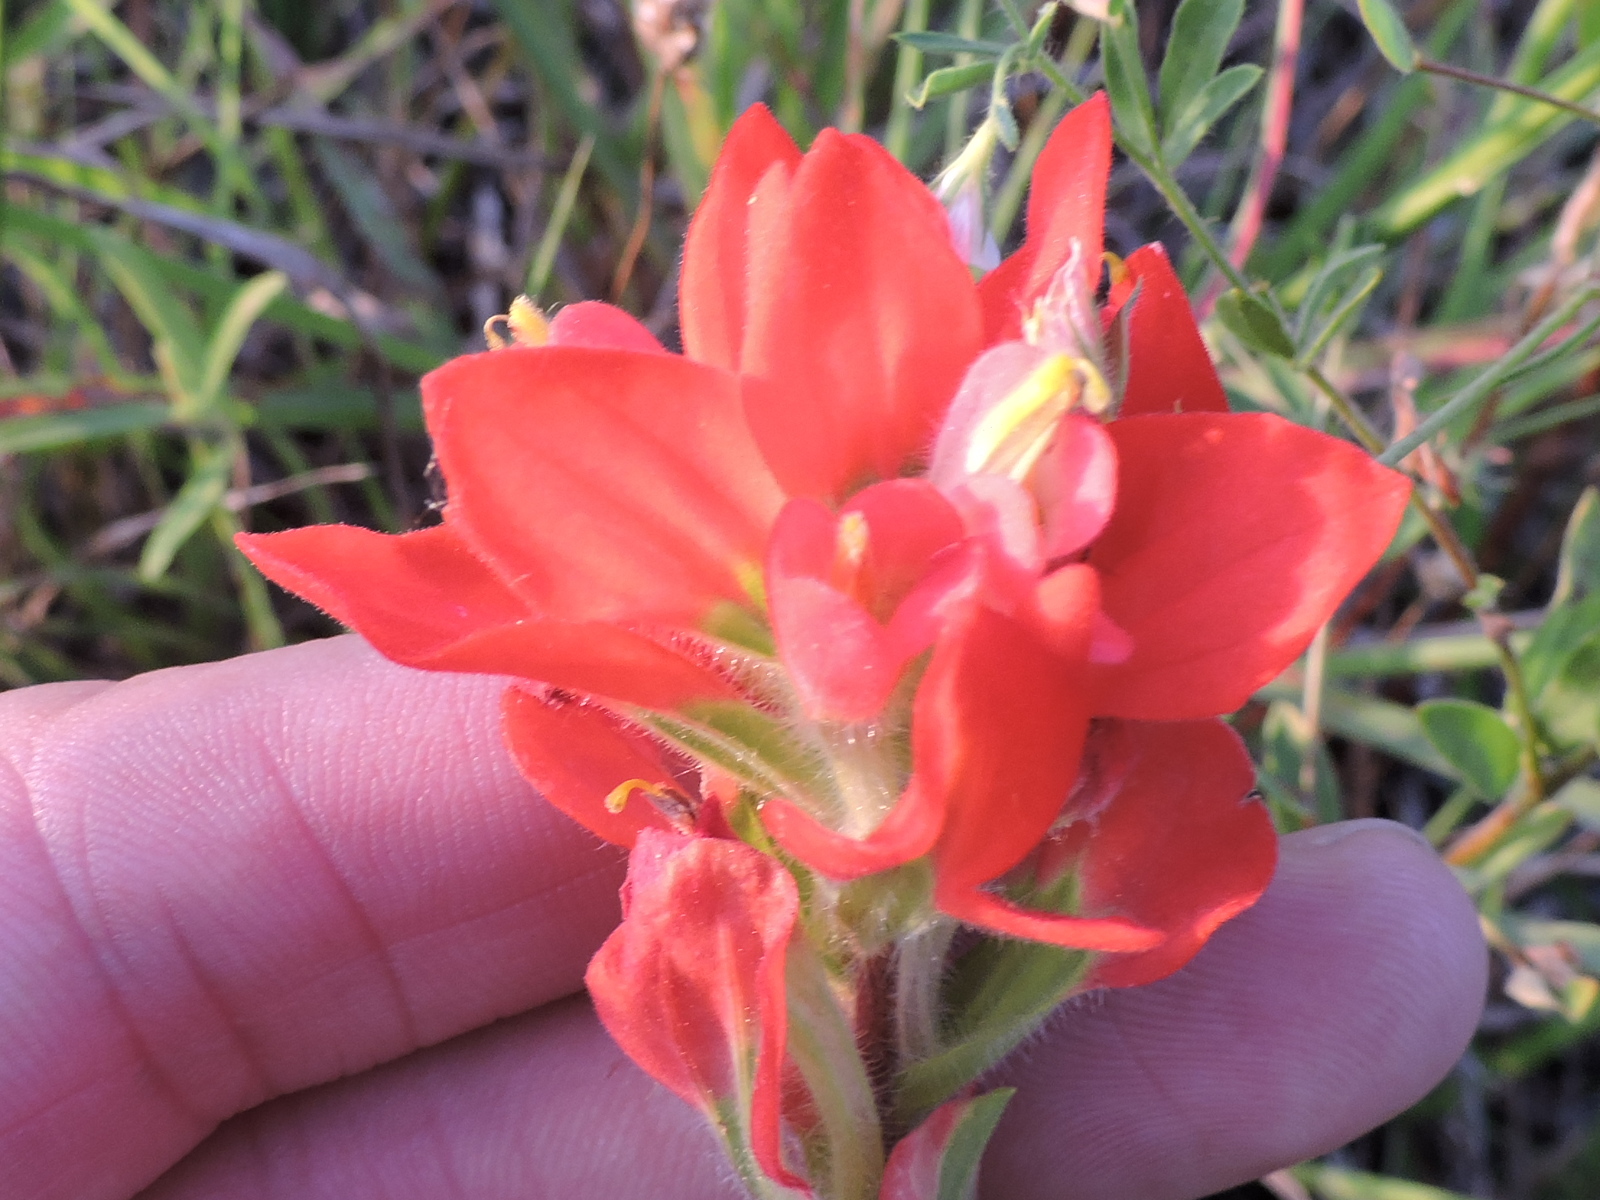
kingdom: Plantae
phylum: Tracheophyta
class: Magnoliopsida
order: Lamiales
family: Orobanchaceae
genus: Castilleja
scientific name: Castilleja indivisa
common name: Texas paintbrush
